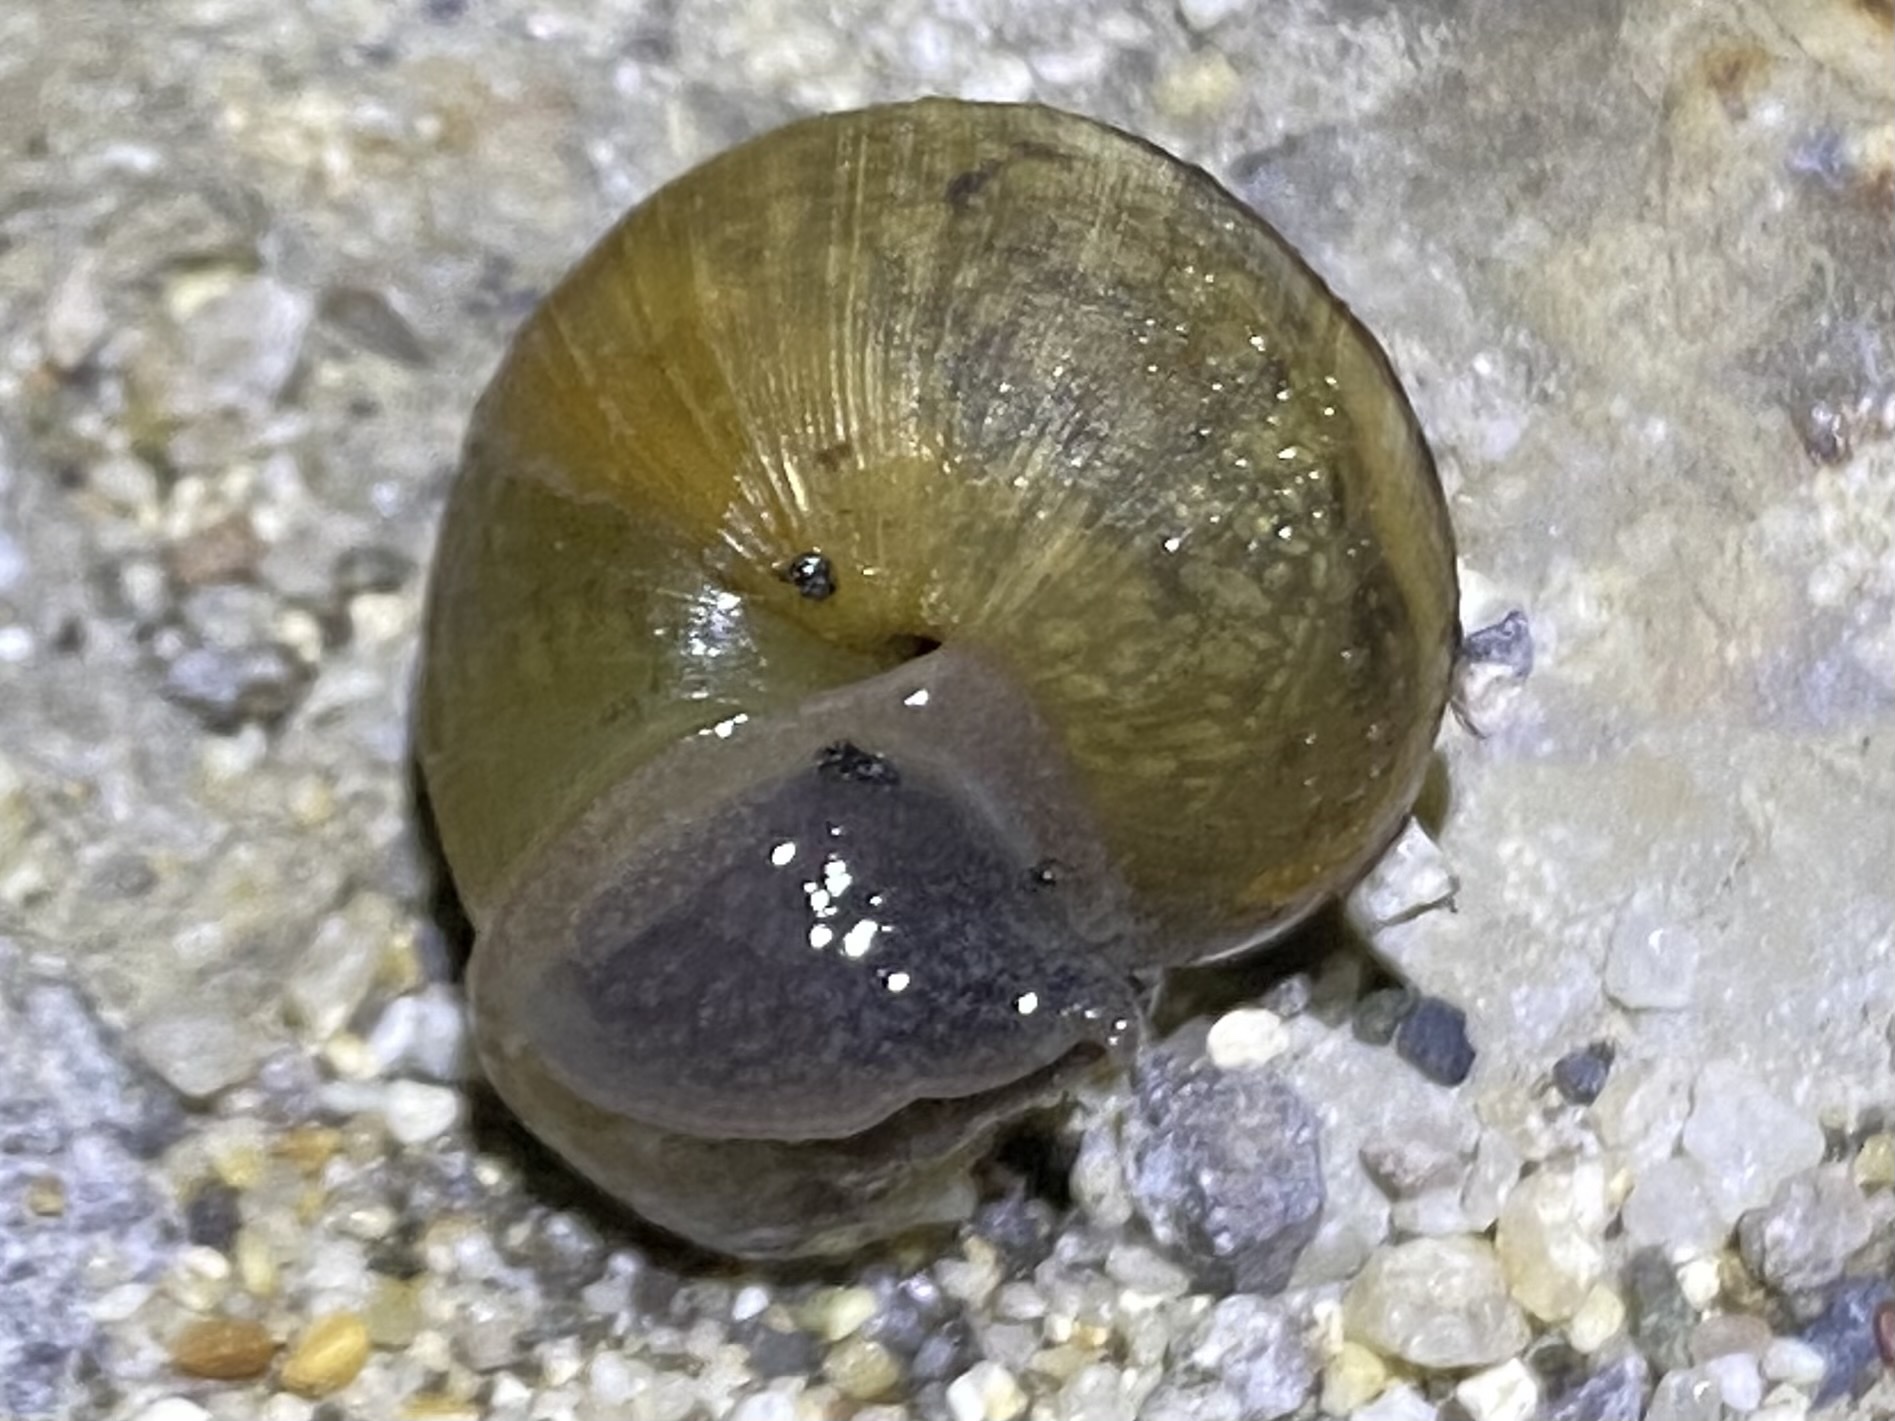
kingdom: Animalia
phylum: Mollusca
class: Gastropoda
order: Stylommatophora
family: Xanthonychidae
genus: Helminthoglypta
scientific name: Helminthoglypta nickliniana
